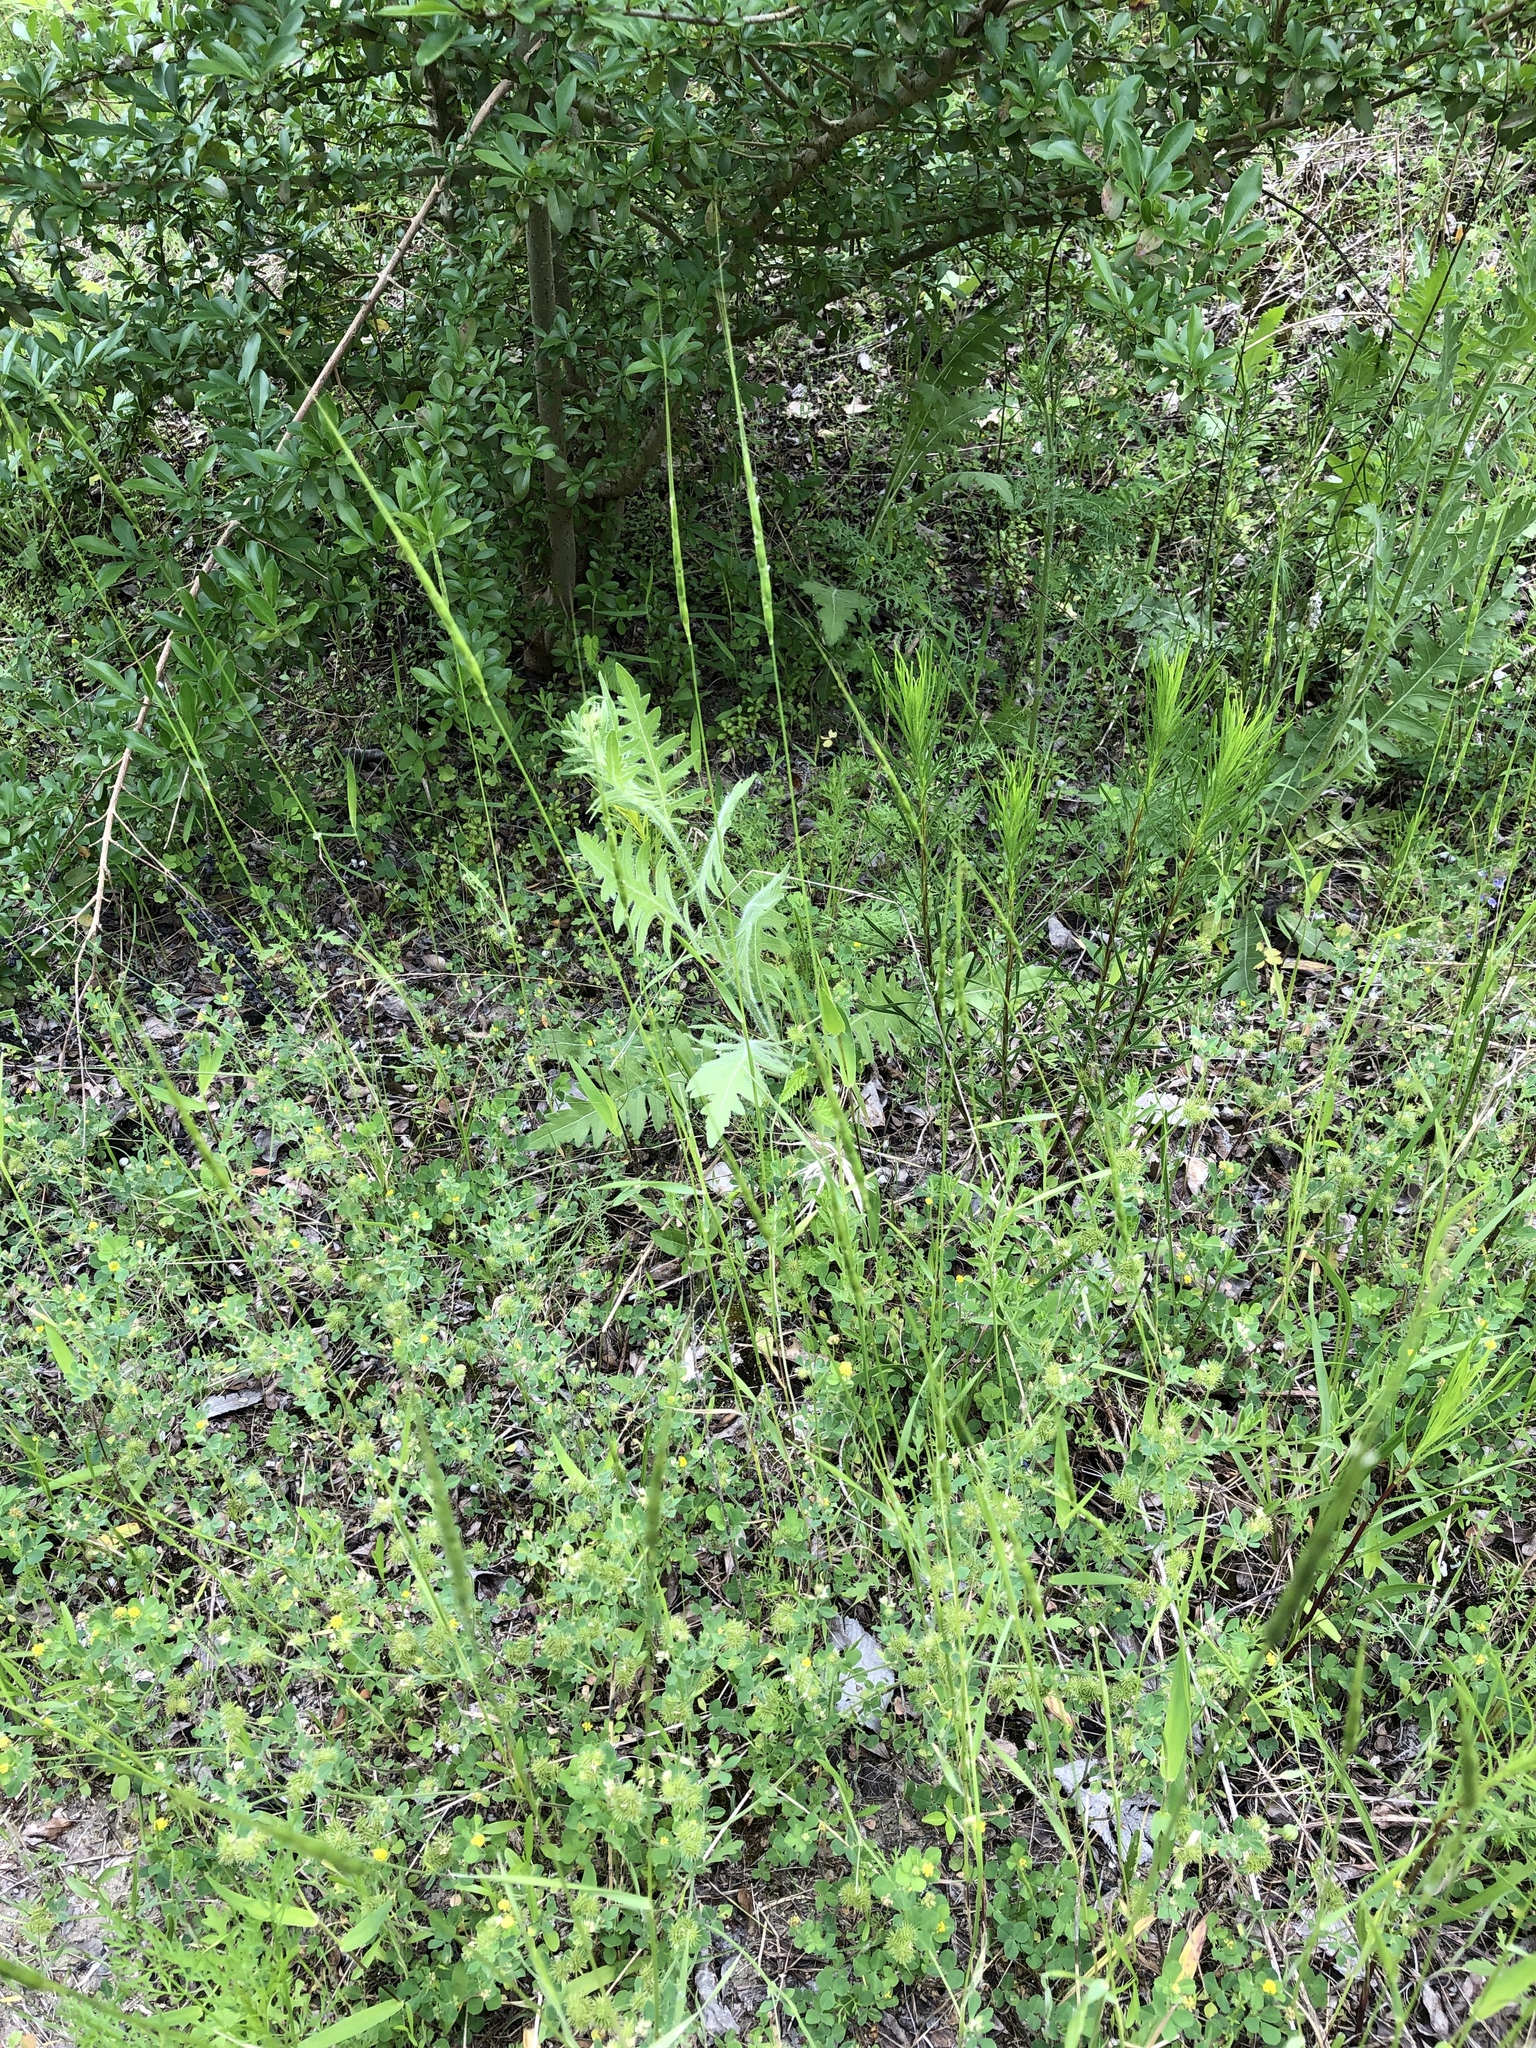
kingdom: Plantae
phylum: Tracheophyta
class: Liliopsida
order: Poales
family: Poaceae
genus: Aegilops
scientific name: Aegilops cylindrica
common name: Jointed goatgrass
